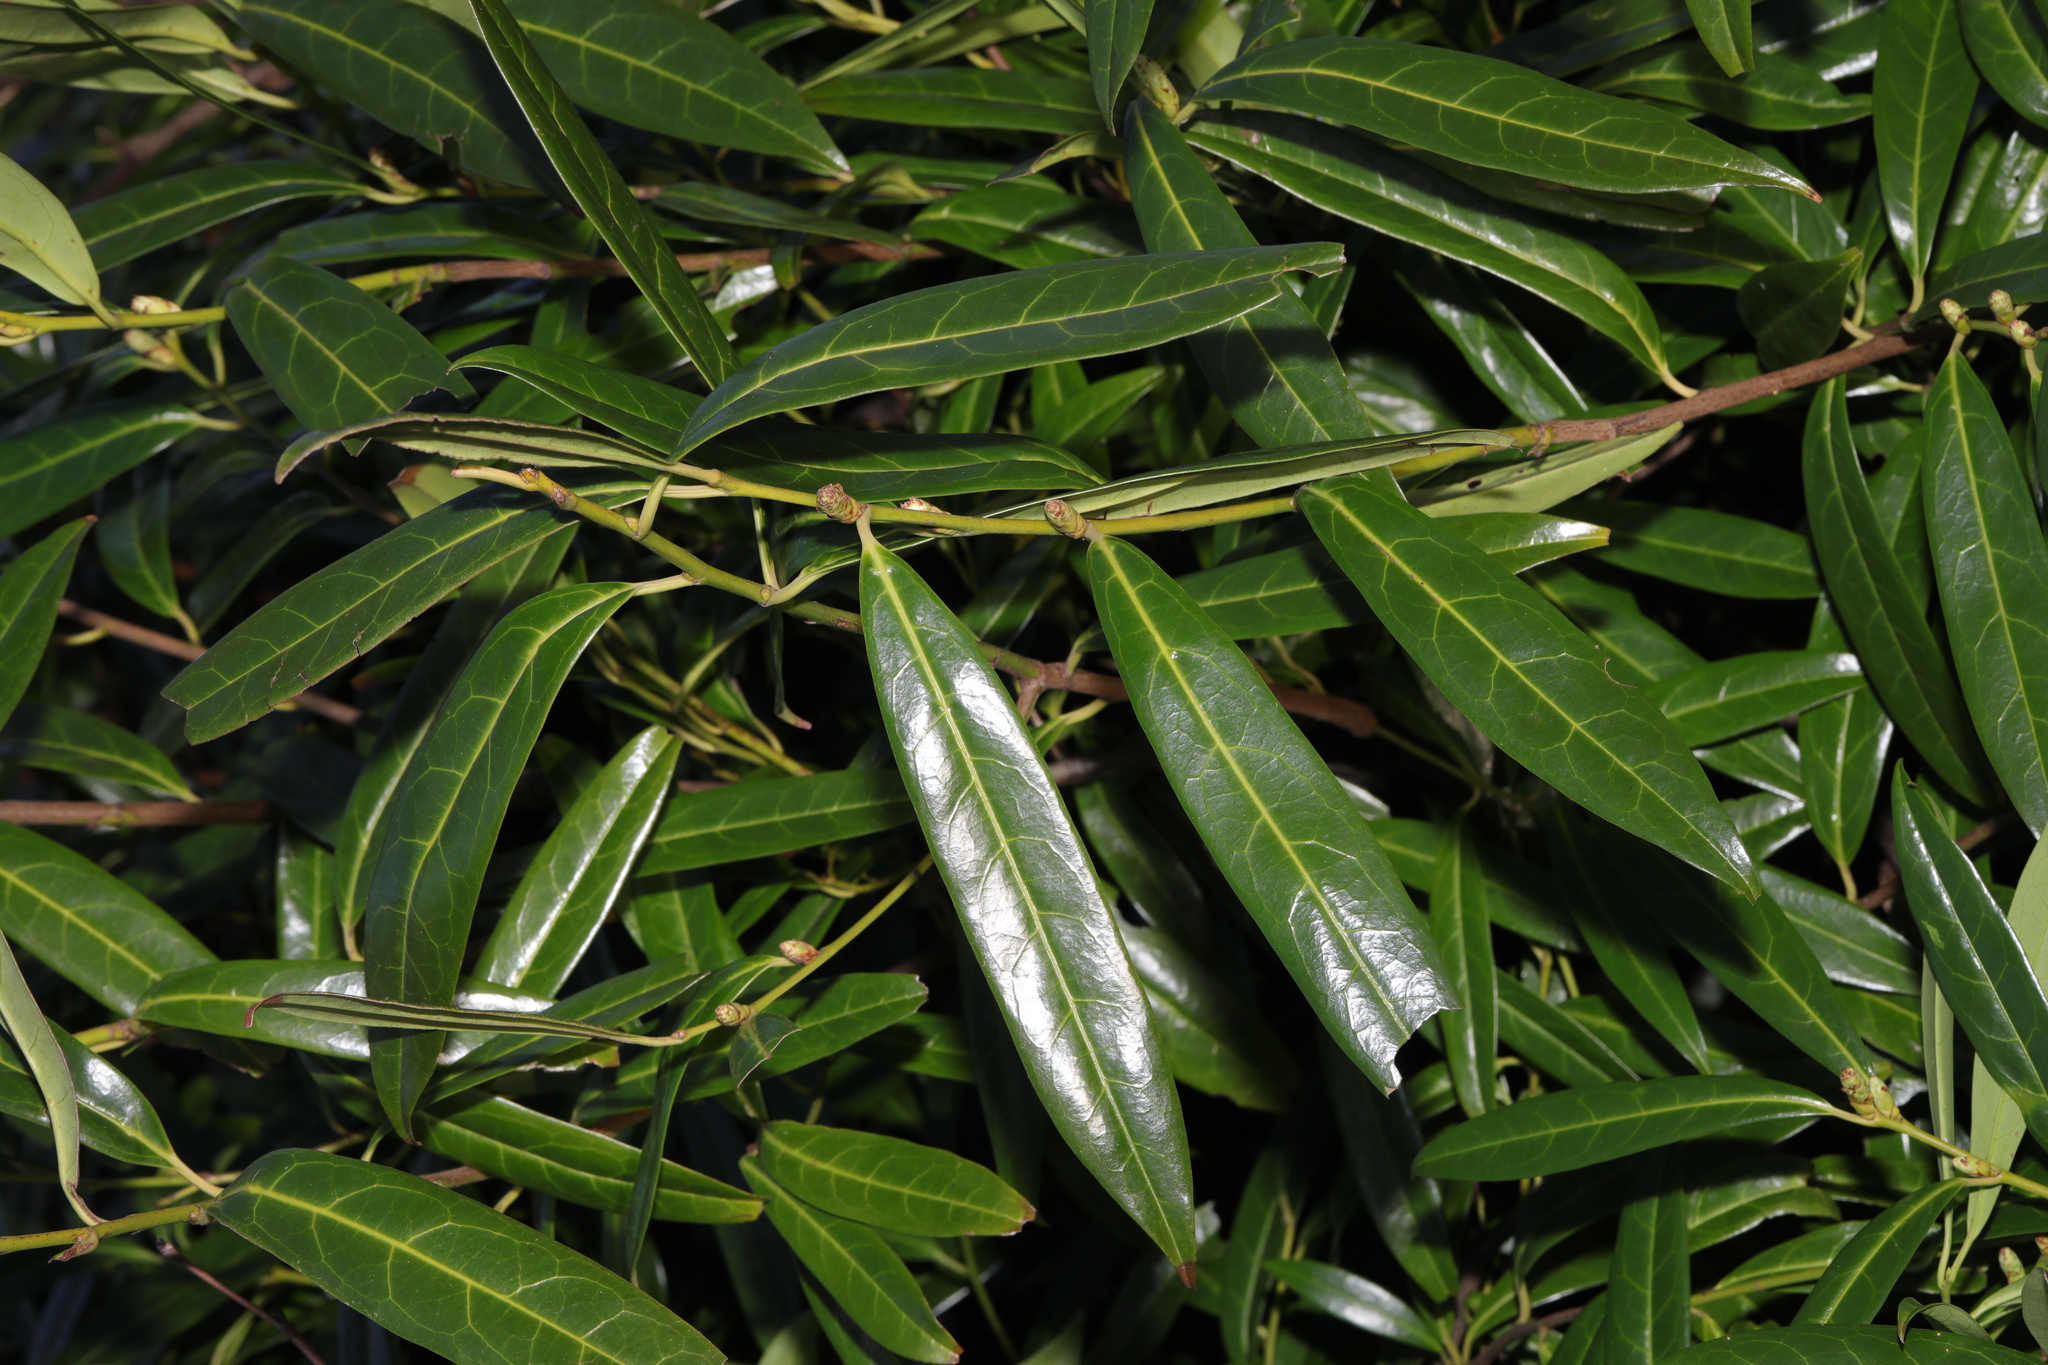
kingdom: Plantae
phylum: Tracheophyta
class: Magnoliopsida
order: Rosales
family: Rosaceae
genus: Prunus
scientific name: Prunus laurocerasus
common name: Cherry laurel
